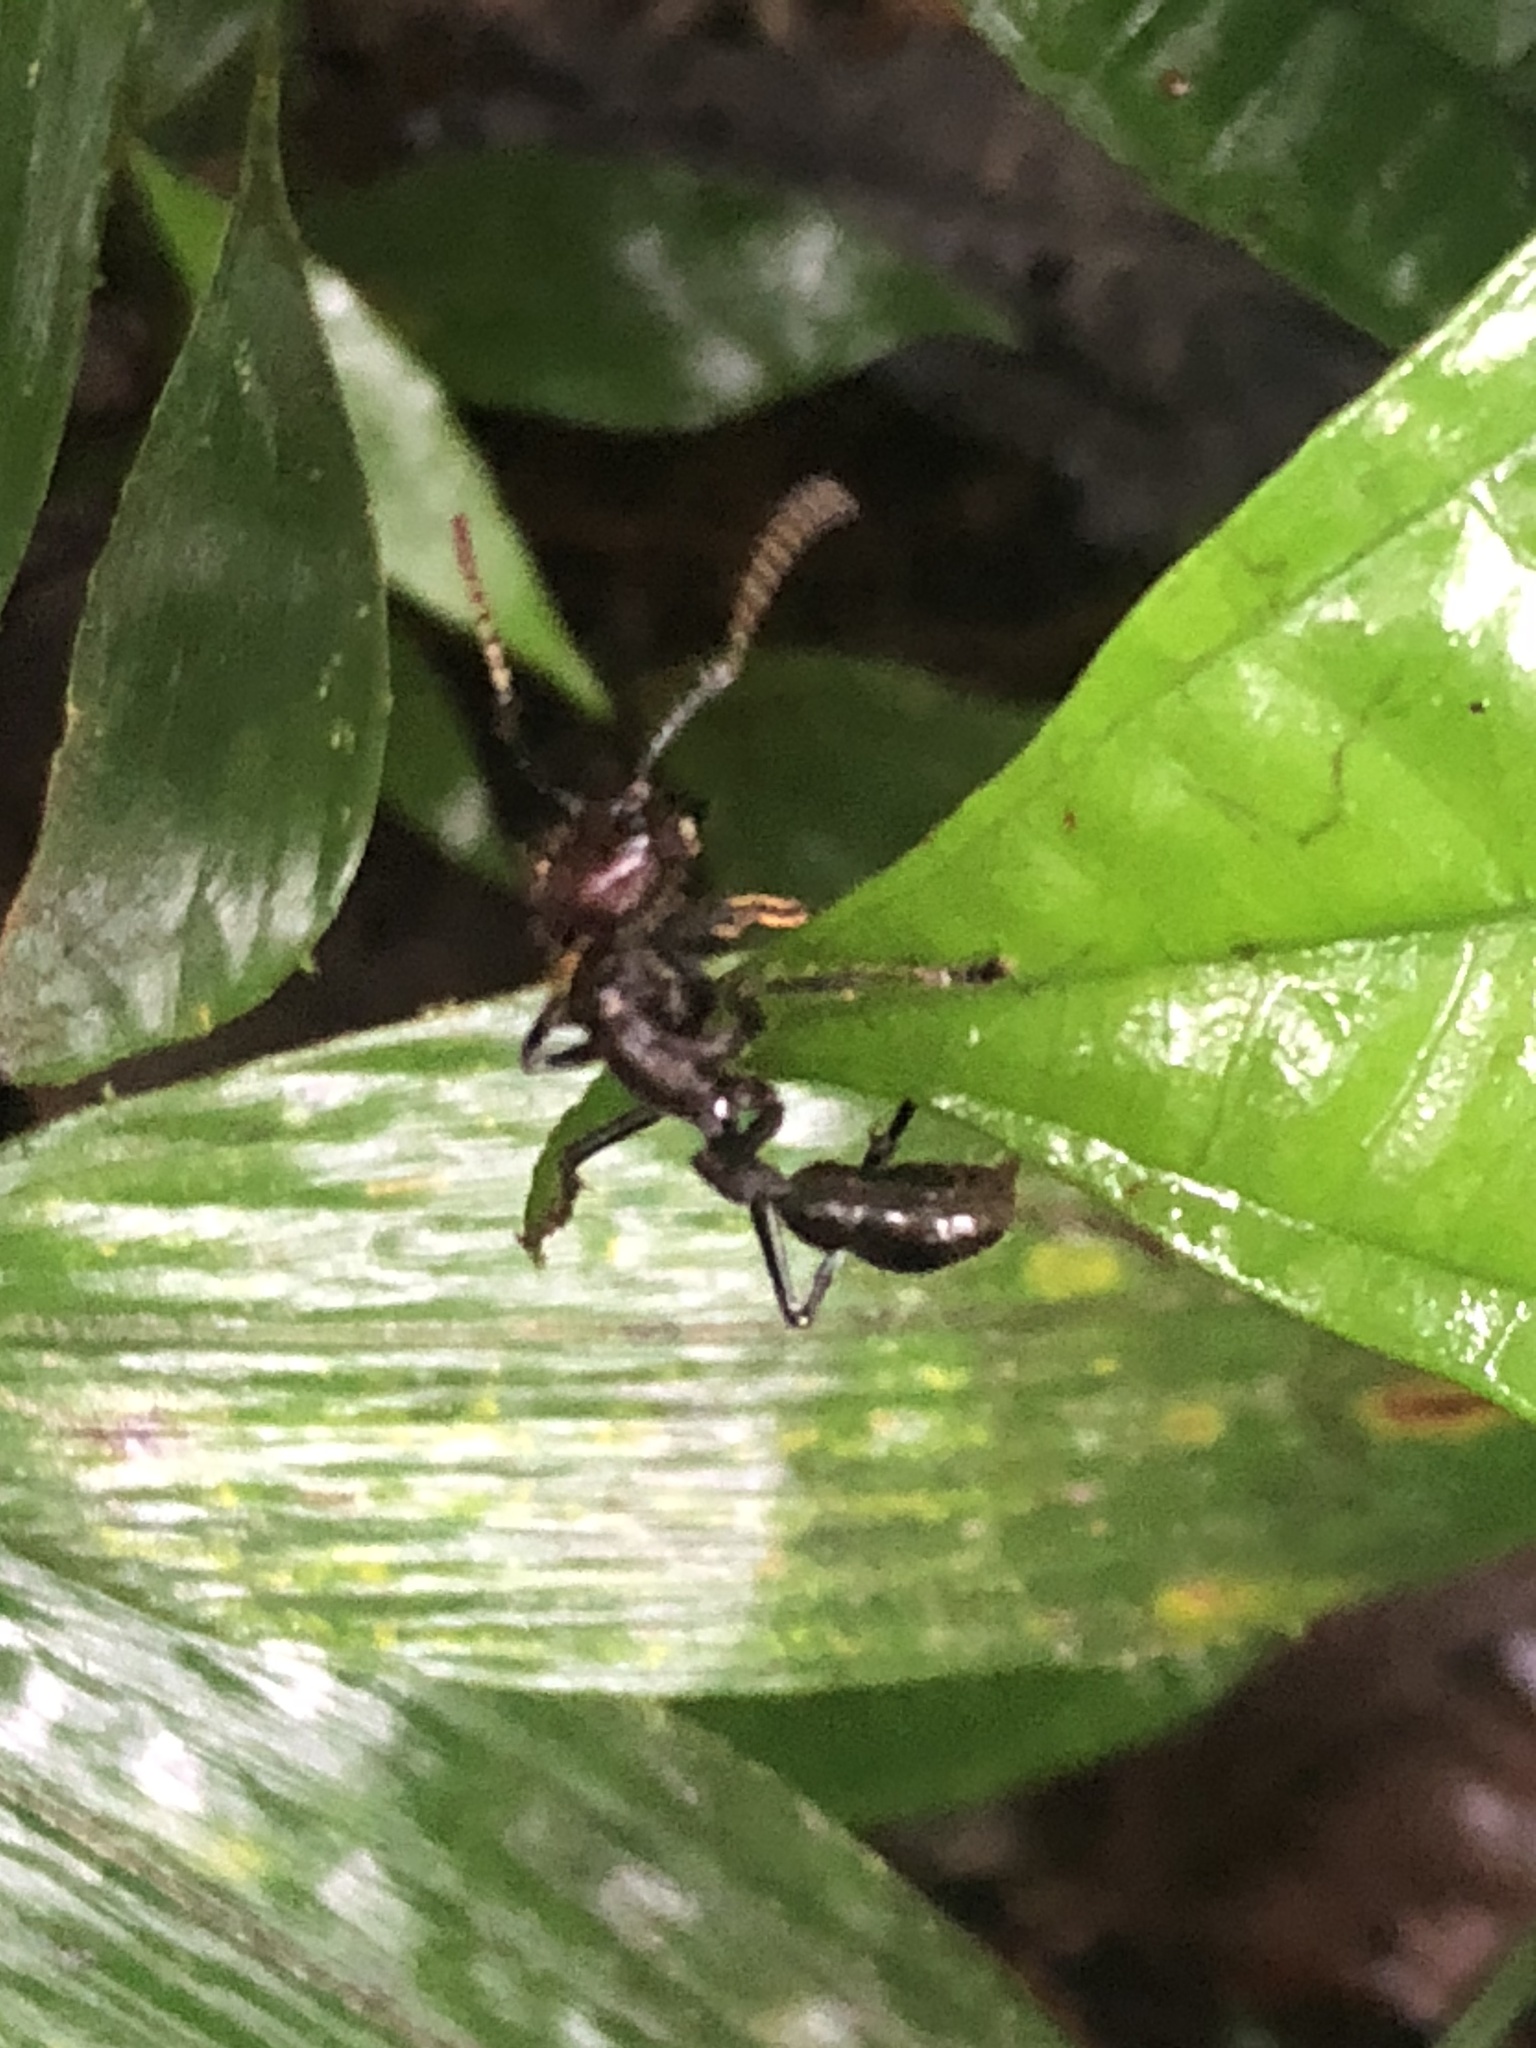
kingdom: Animalia
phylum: Arthropoda
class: Insecta
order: Hymenoptera
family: Formicidae
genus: Paraponera
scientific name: Paraponera clavata
